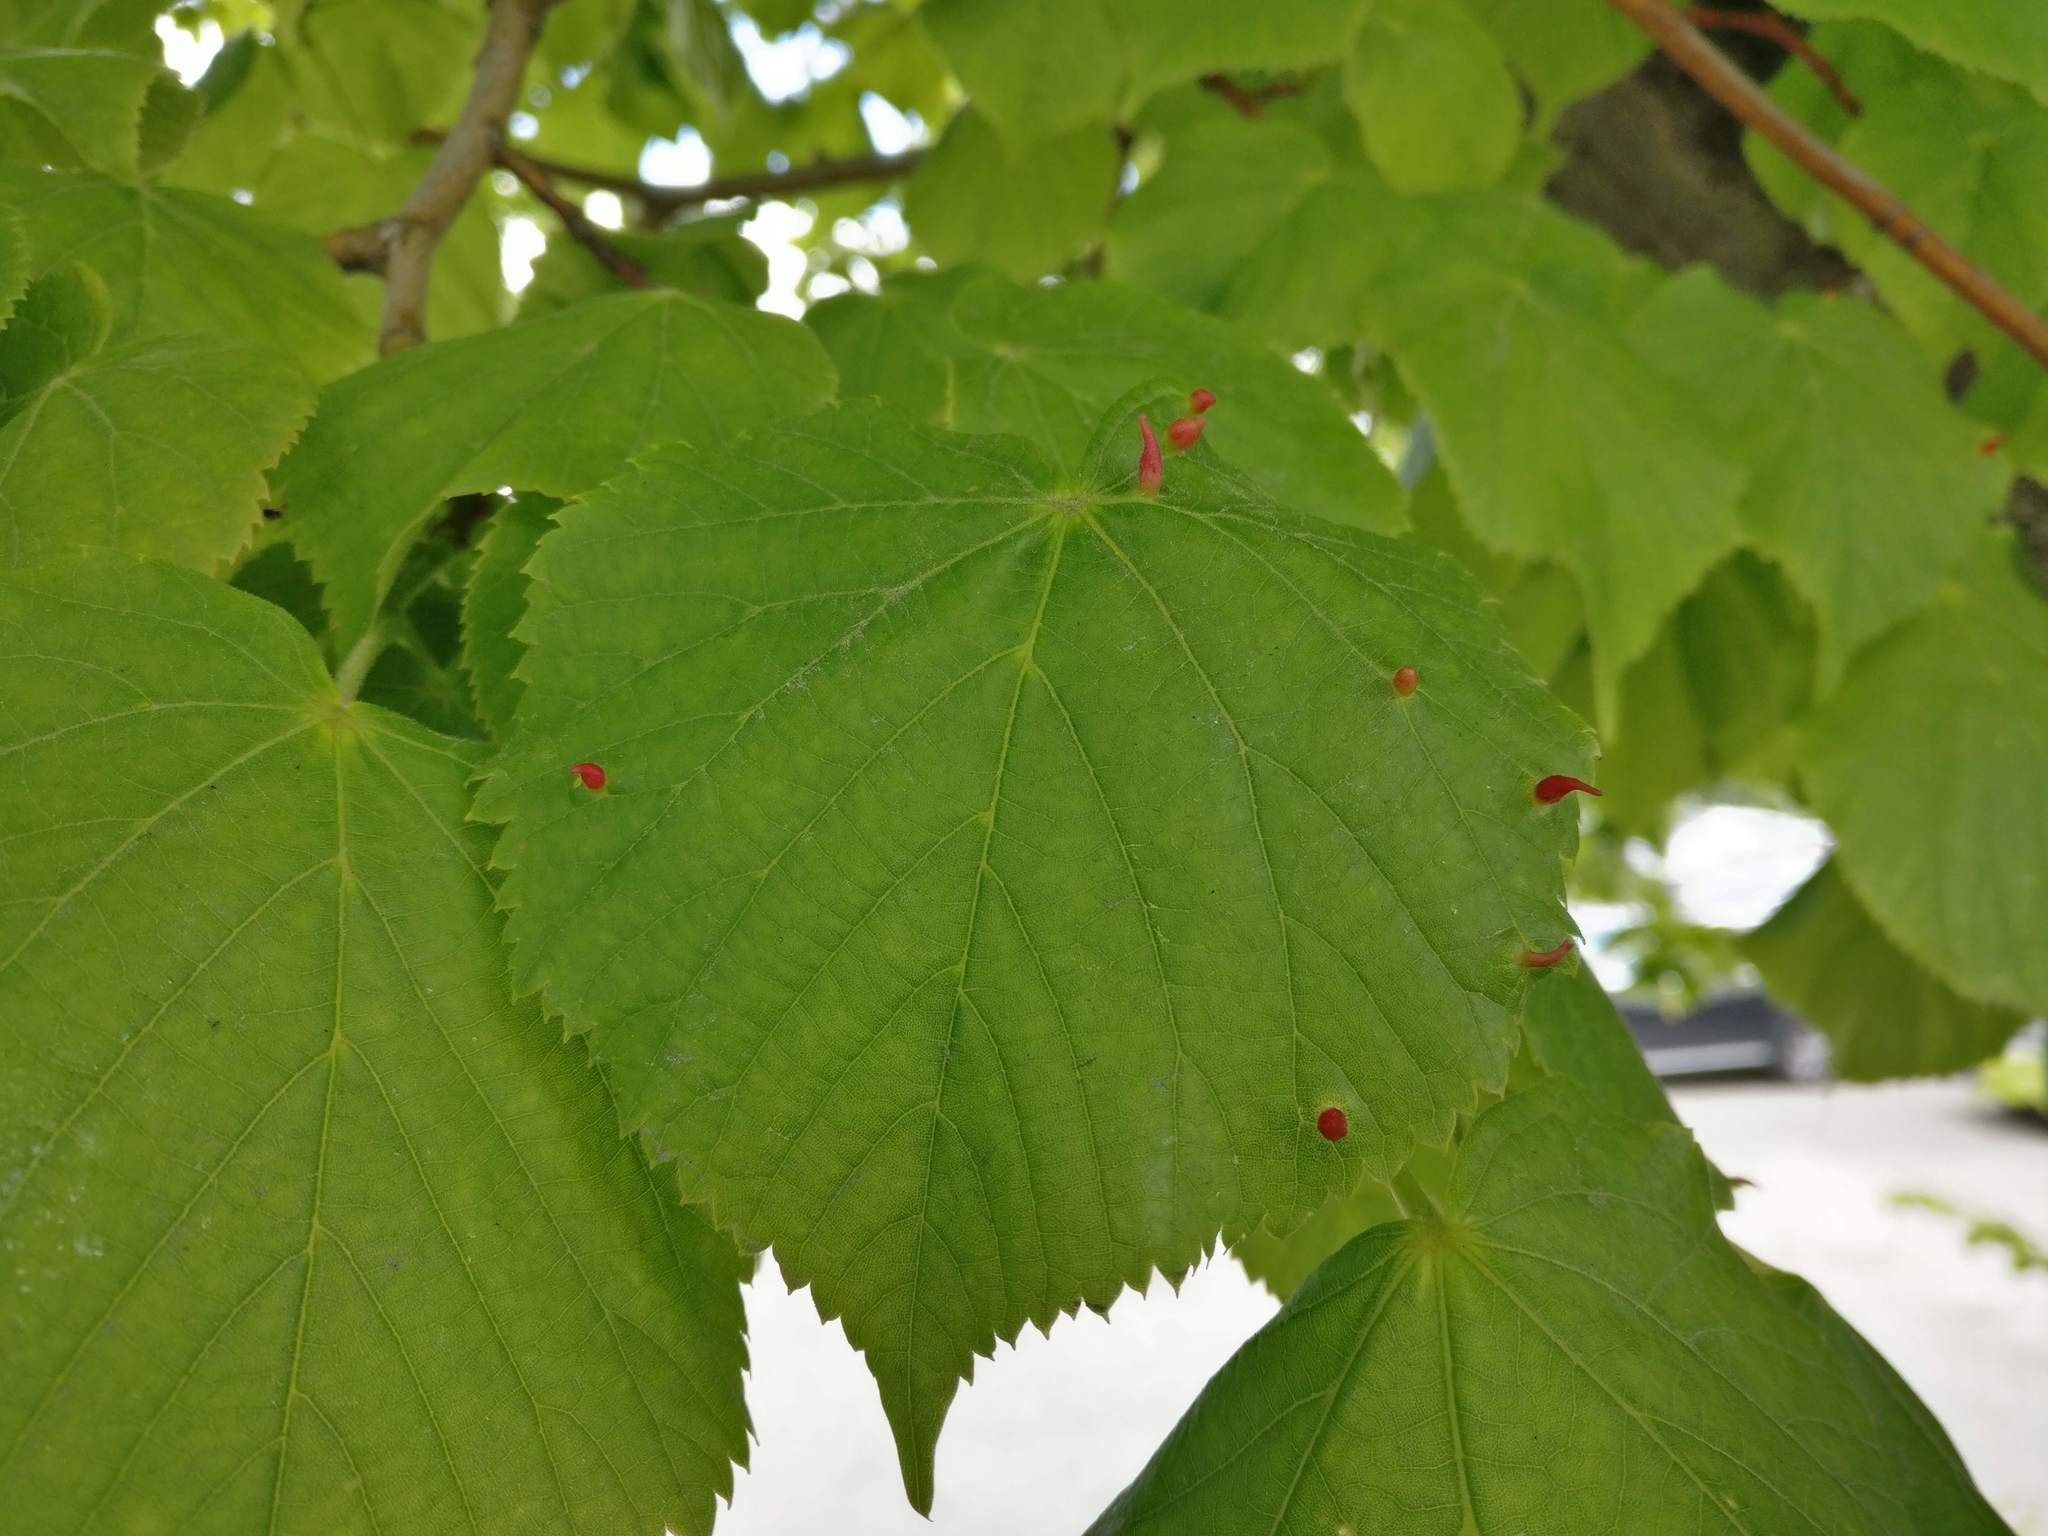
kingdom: Animalia
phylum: Arthropoda
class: Arachnida
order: Trombidiformes
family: Eriophyidae
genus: Eriophyes
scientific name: Eriophyes tiliae
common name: Red nail gall mite
